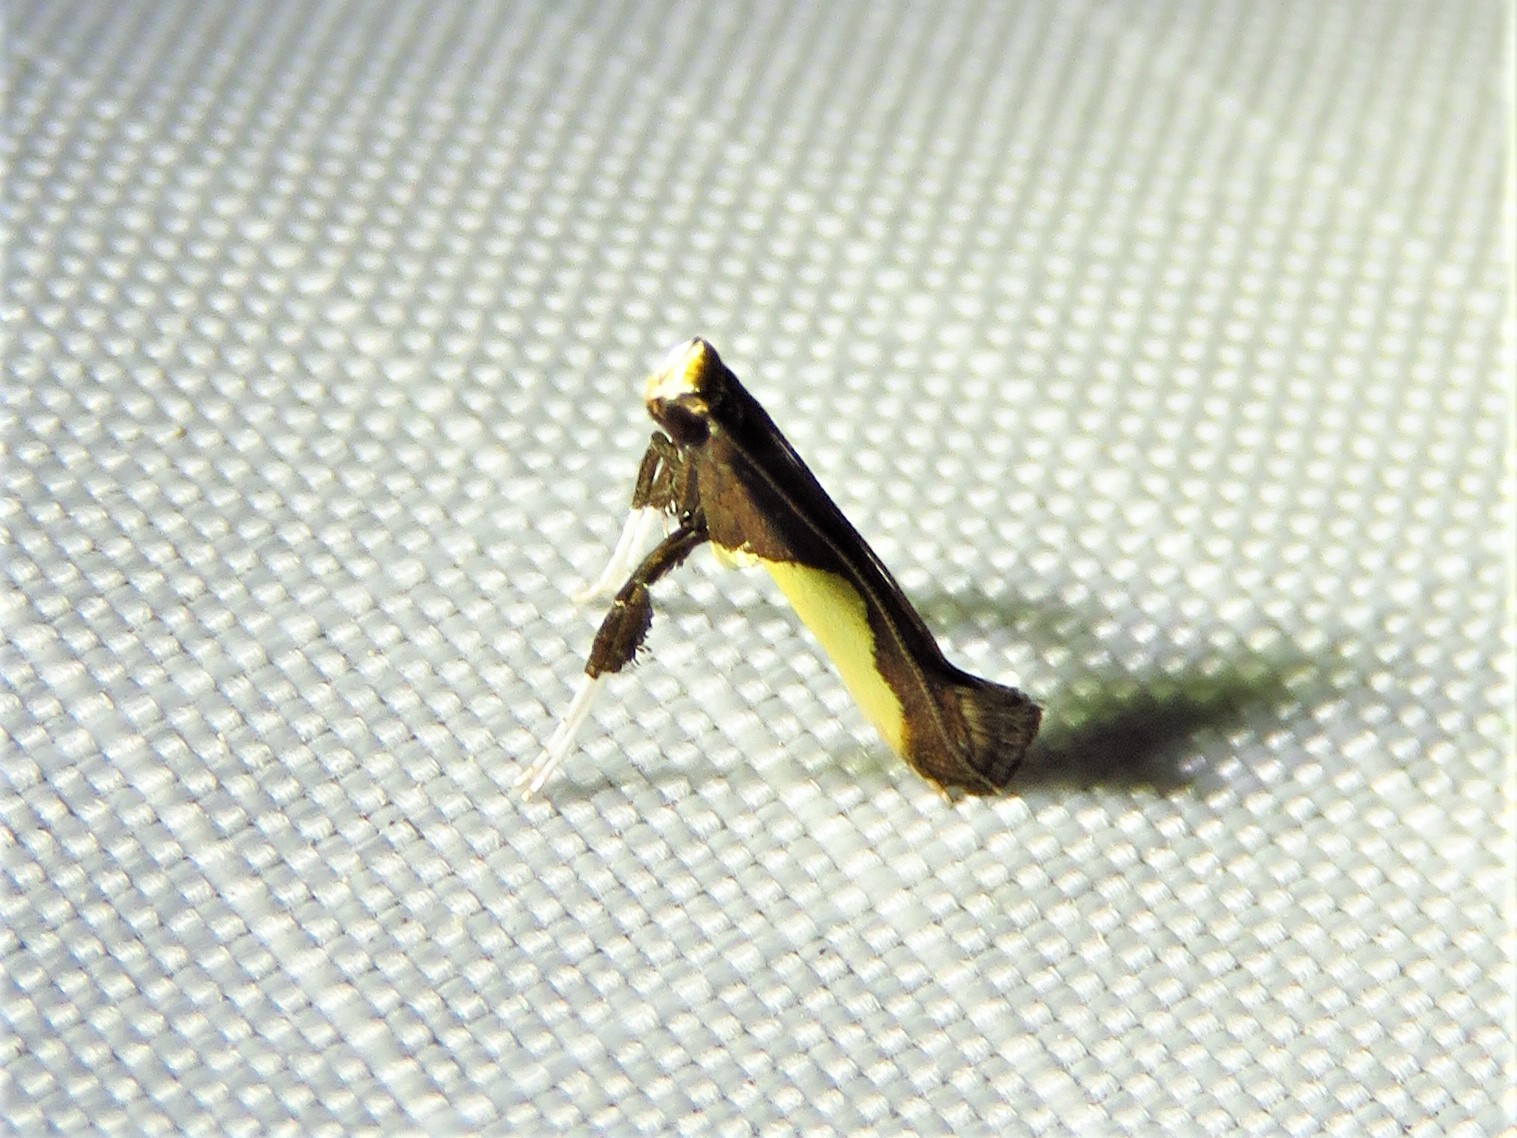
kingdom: Animalia
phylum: Arthropoda
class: Insecta
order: Lepidoptera
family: Gracillariidae
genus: Caloptilia
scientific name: Caloptilia belfragella
